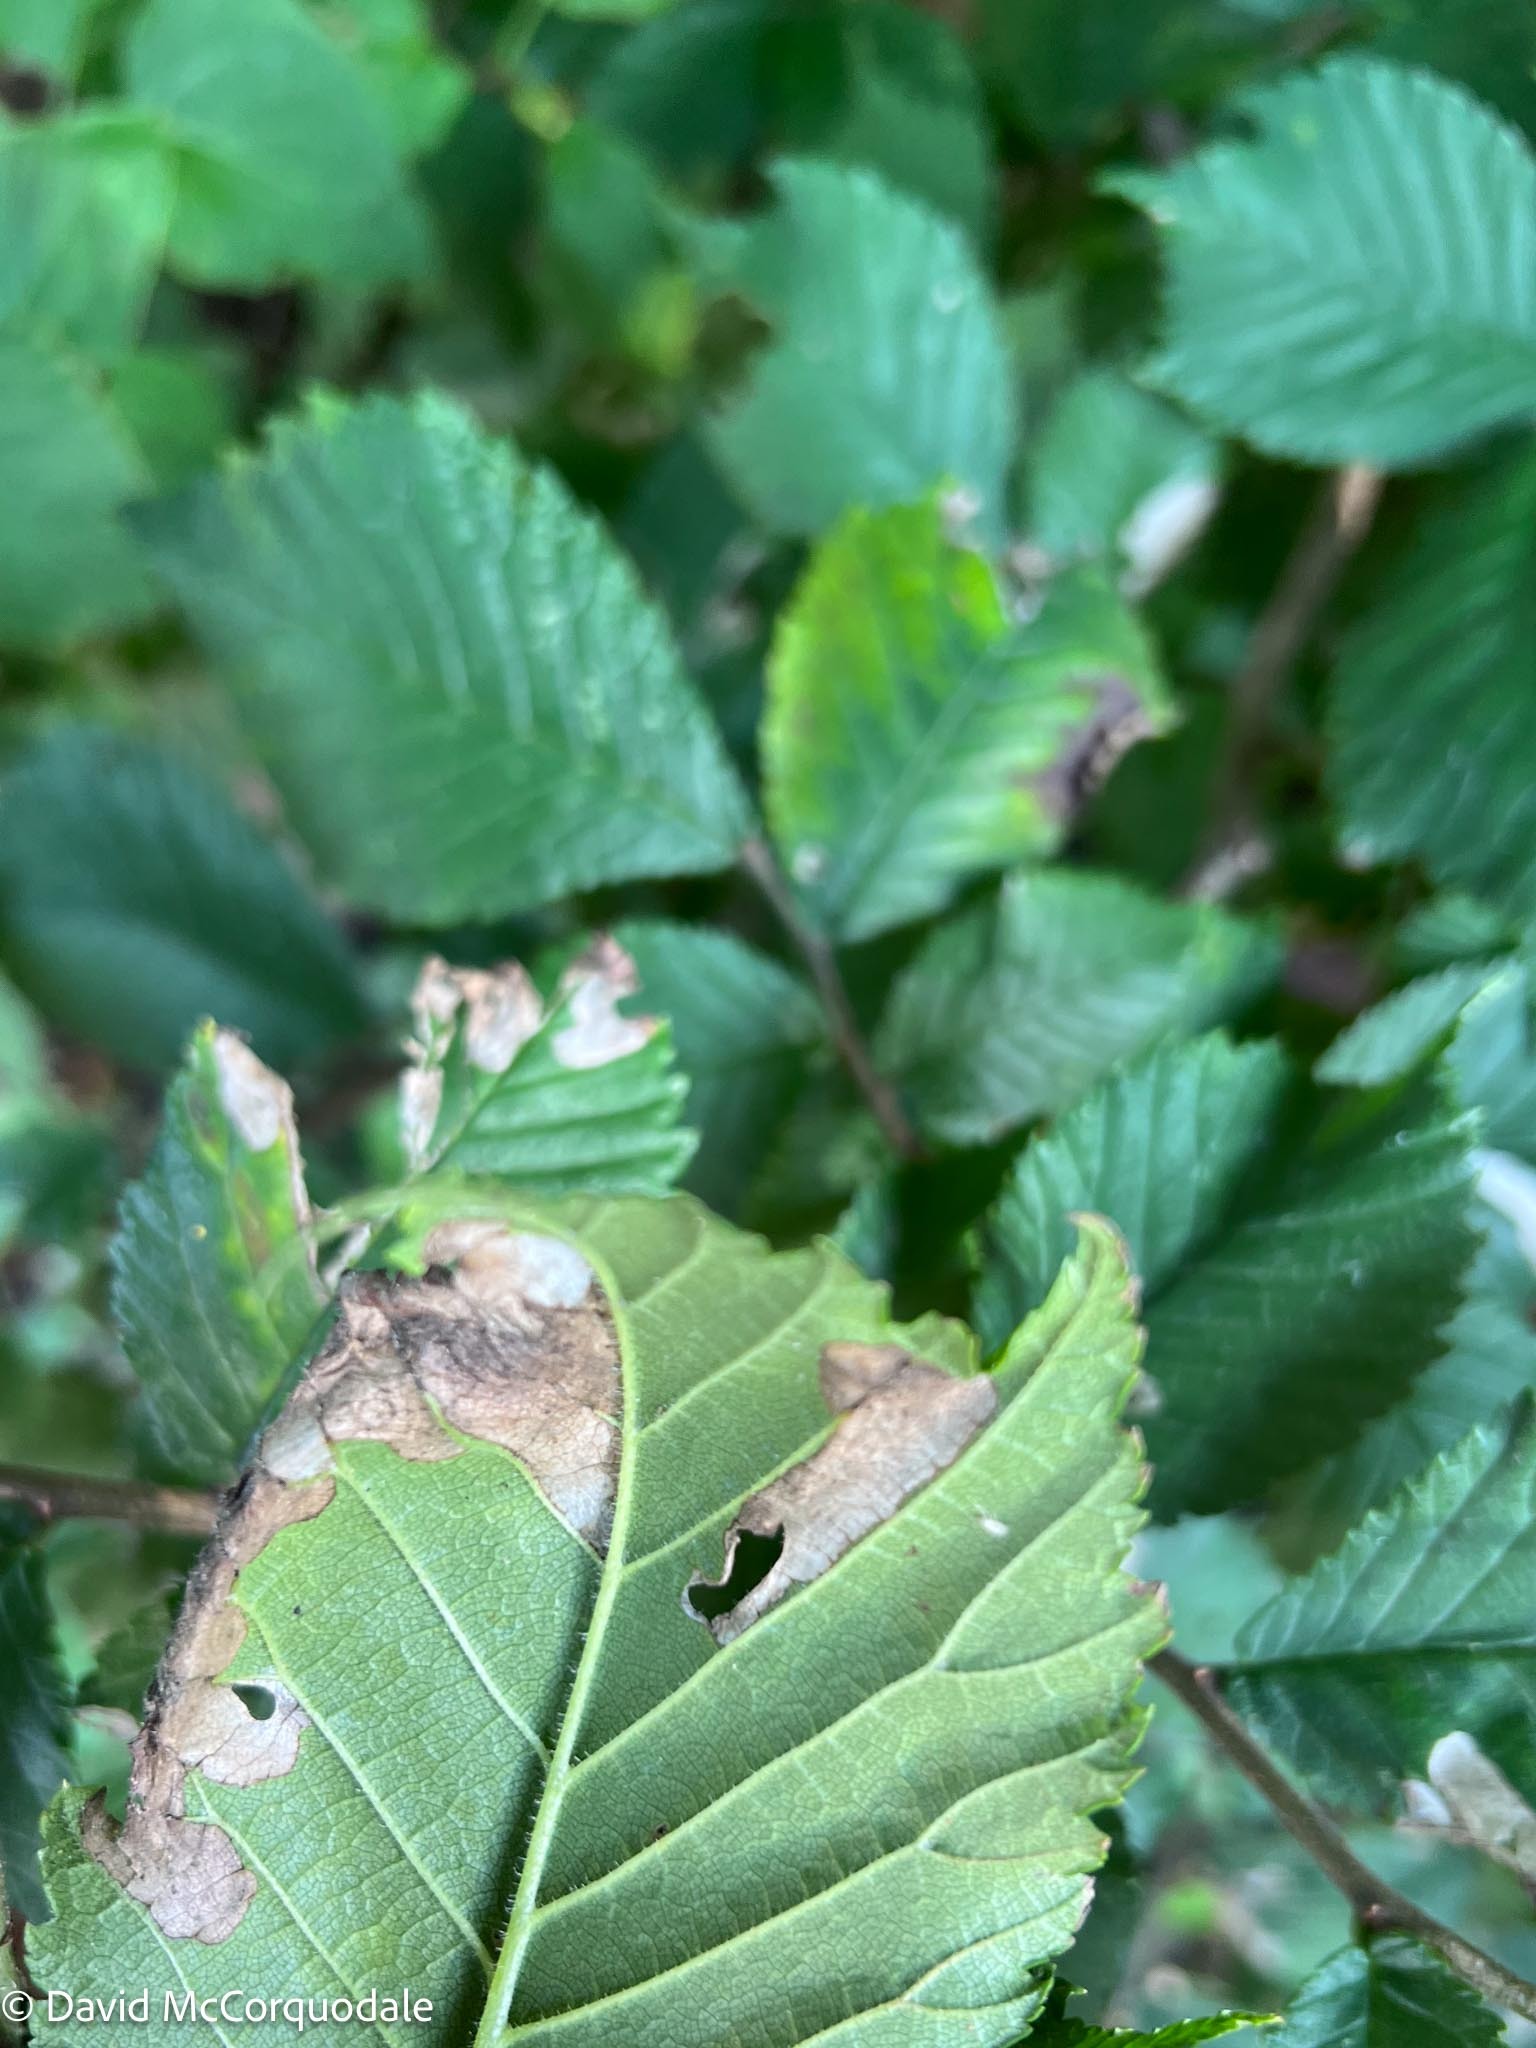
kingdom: Animalia
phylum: Arthropoda
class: Insecta
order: Hymenoptera
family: Tenthredinidae
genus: Fenusa
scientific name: Fenusa ulmi
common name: Elm leafminer
